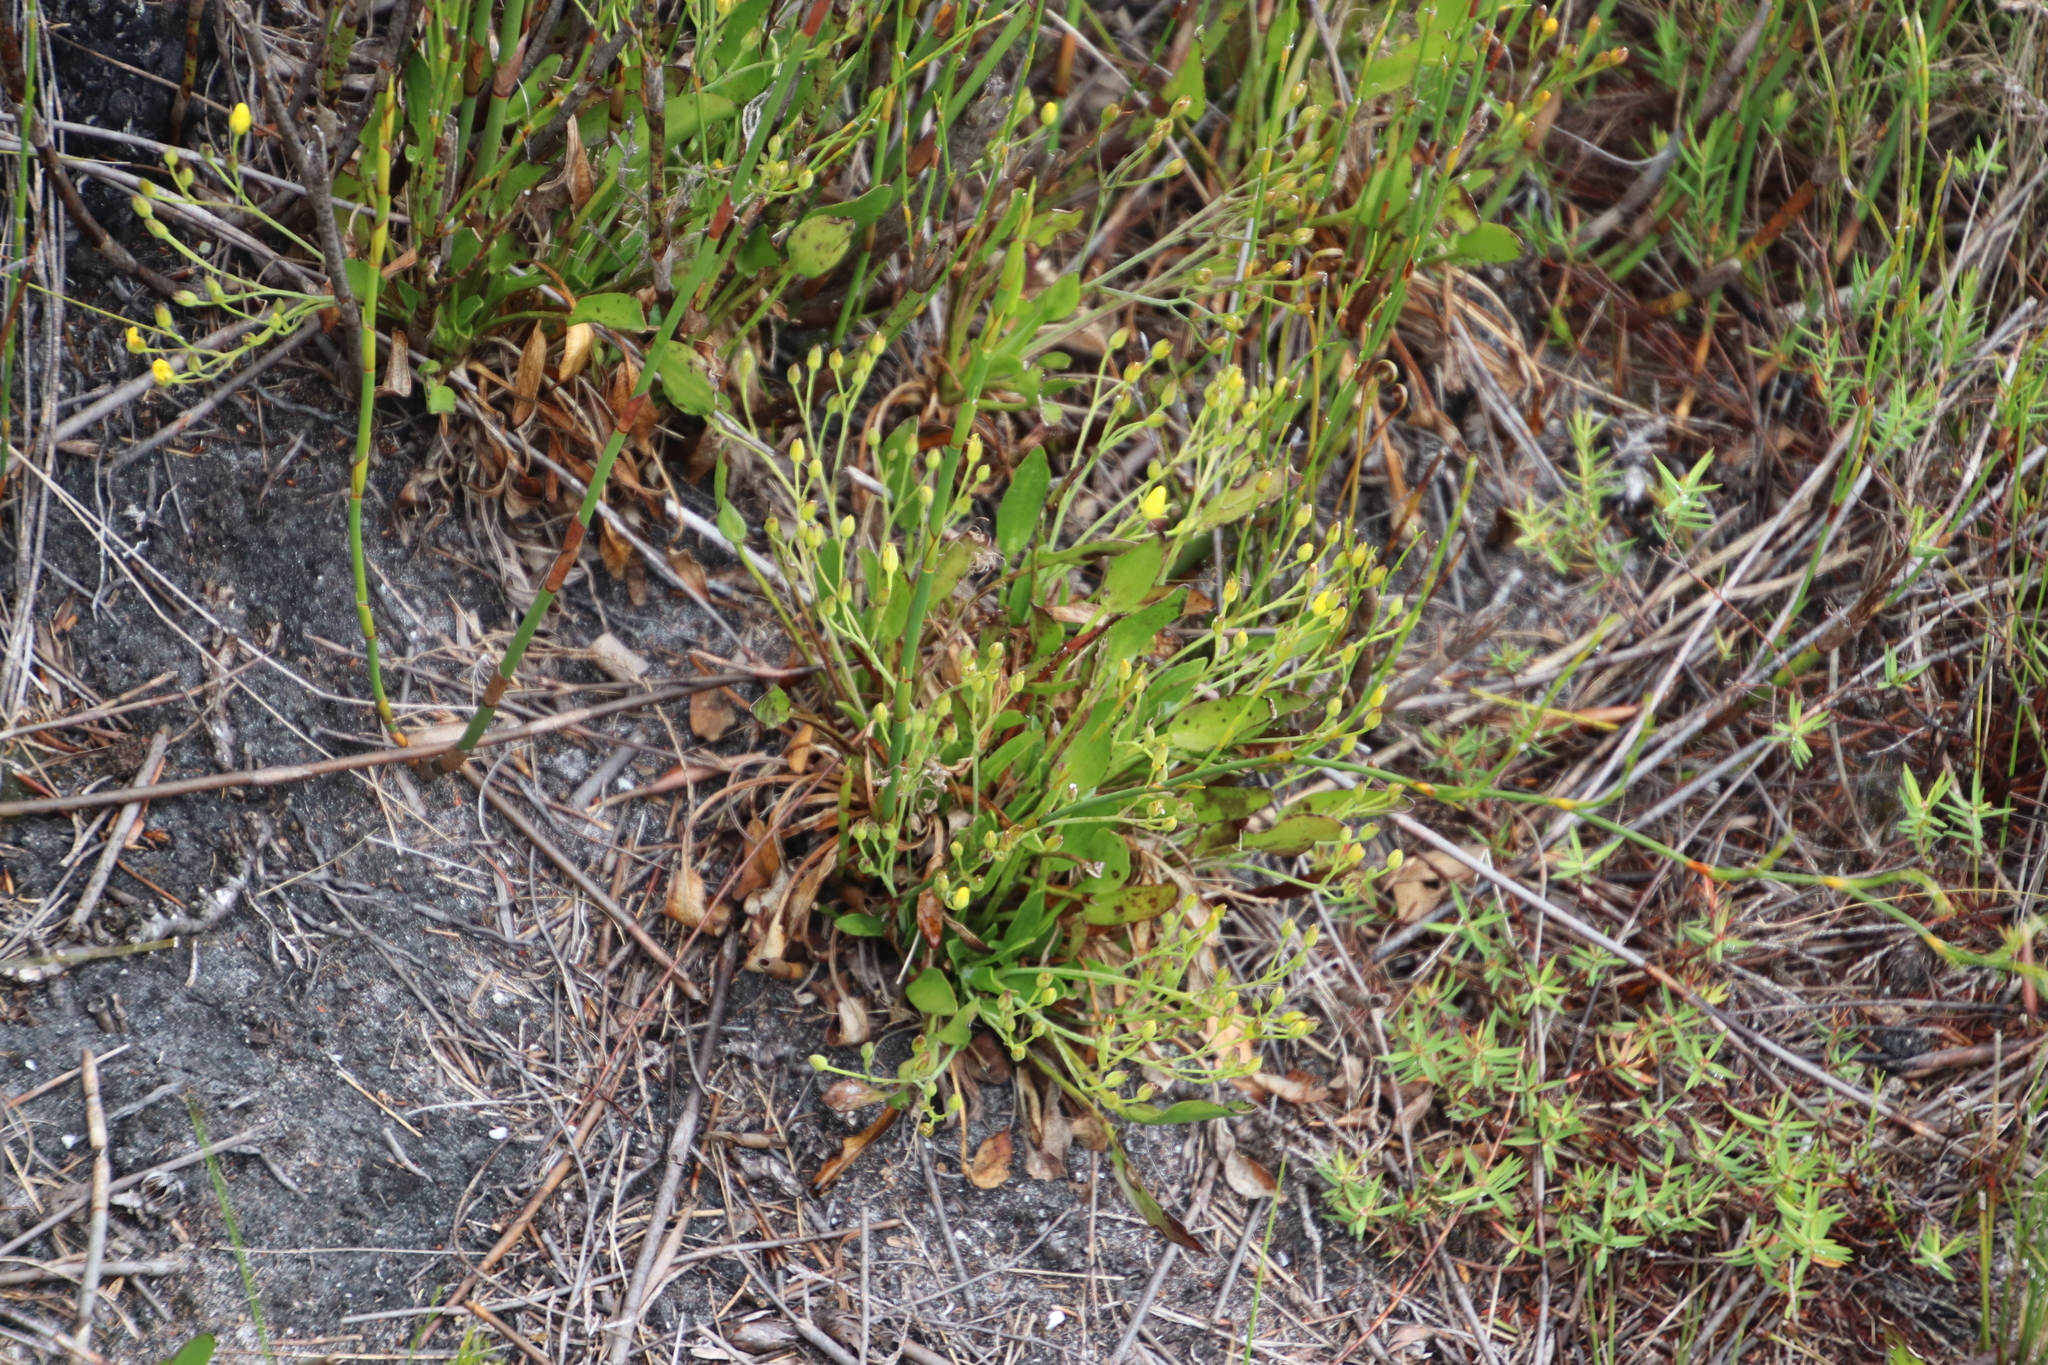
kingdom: Plantae
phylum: Tracheophyta
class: Magnoliopsida
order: Asterales
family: Menyanthaceae
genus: Villarsia
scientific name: Villarsia manningiana
